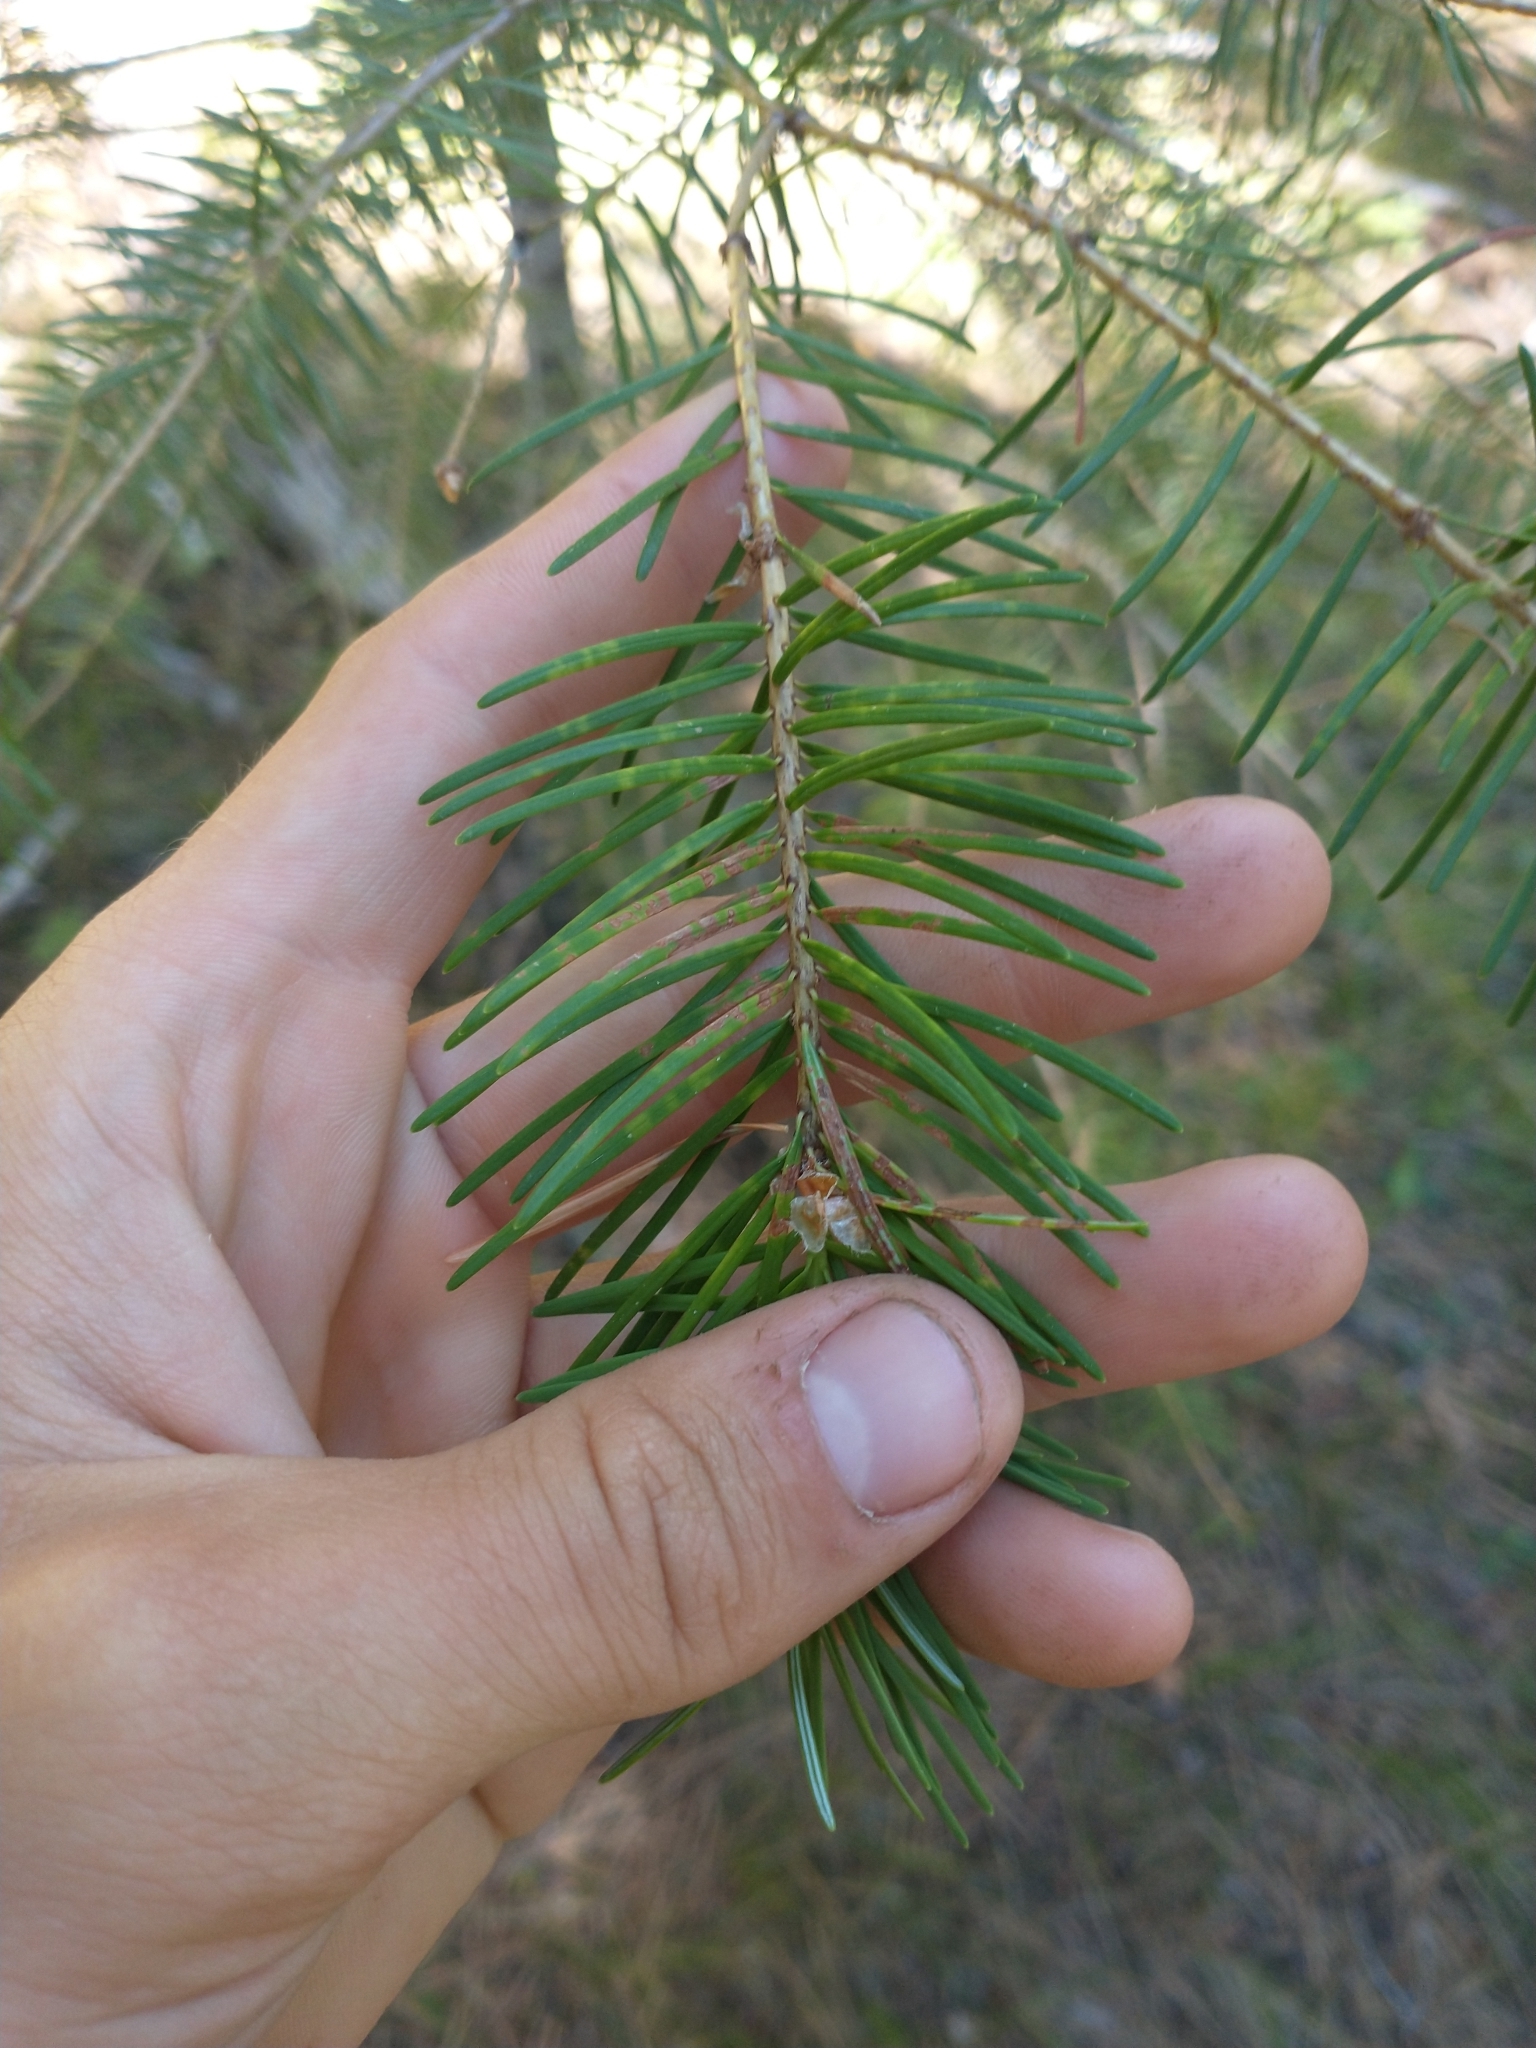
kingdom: Plantae
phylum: Tracheophyta
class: Pinopsida
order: Pinales
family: Pinaceae
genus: Pseudotsuga
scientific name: Pseudotsuga menziesii
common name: Douglas fir
